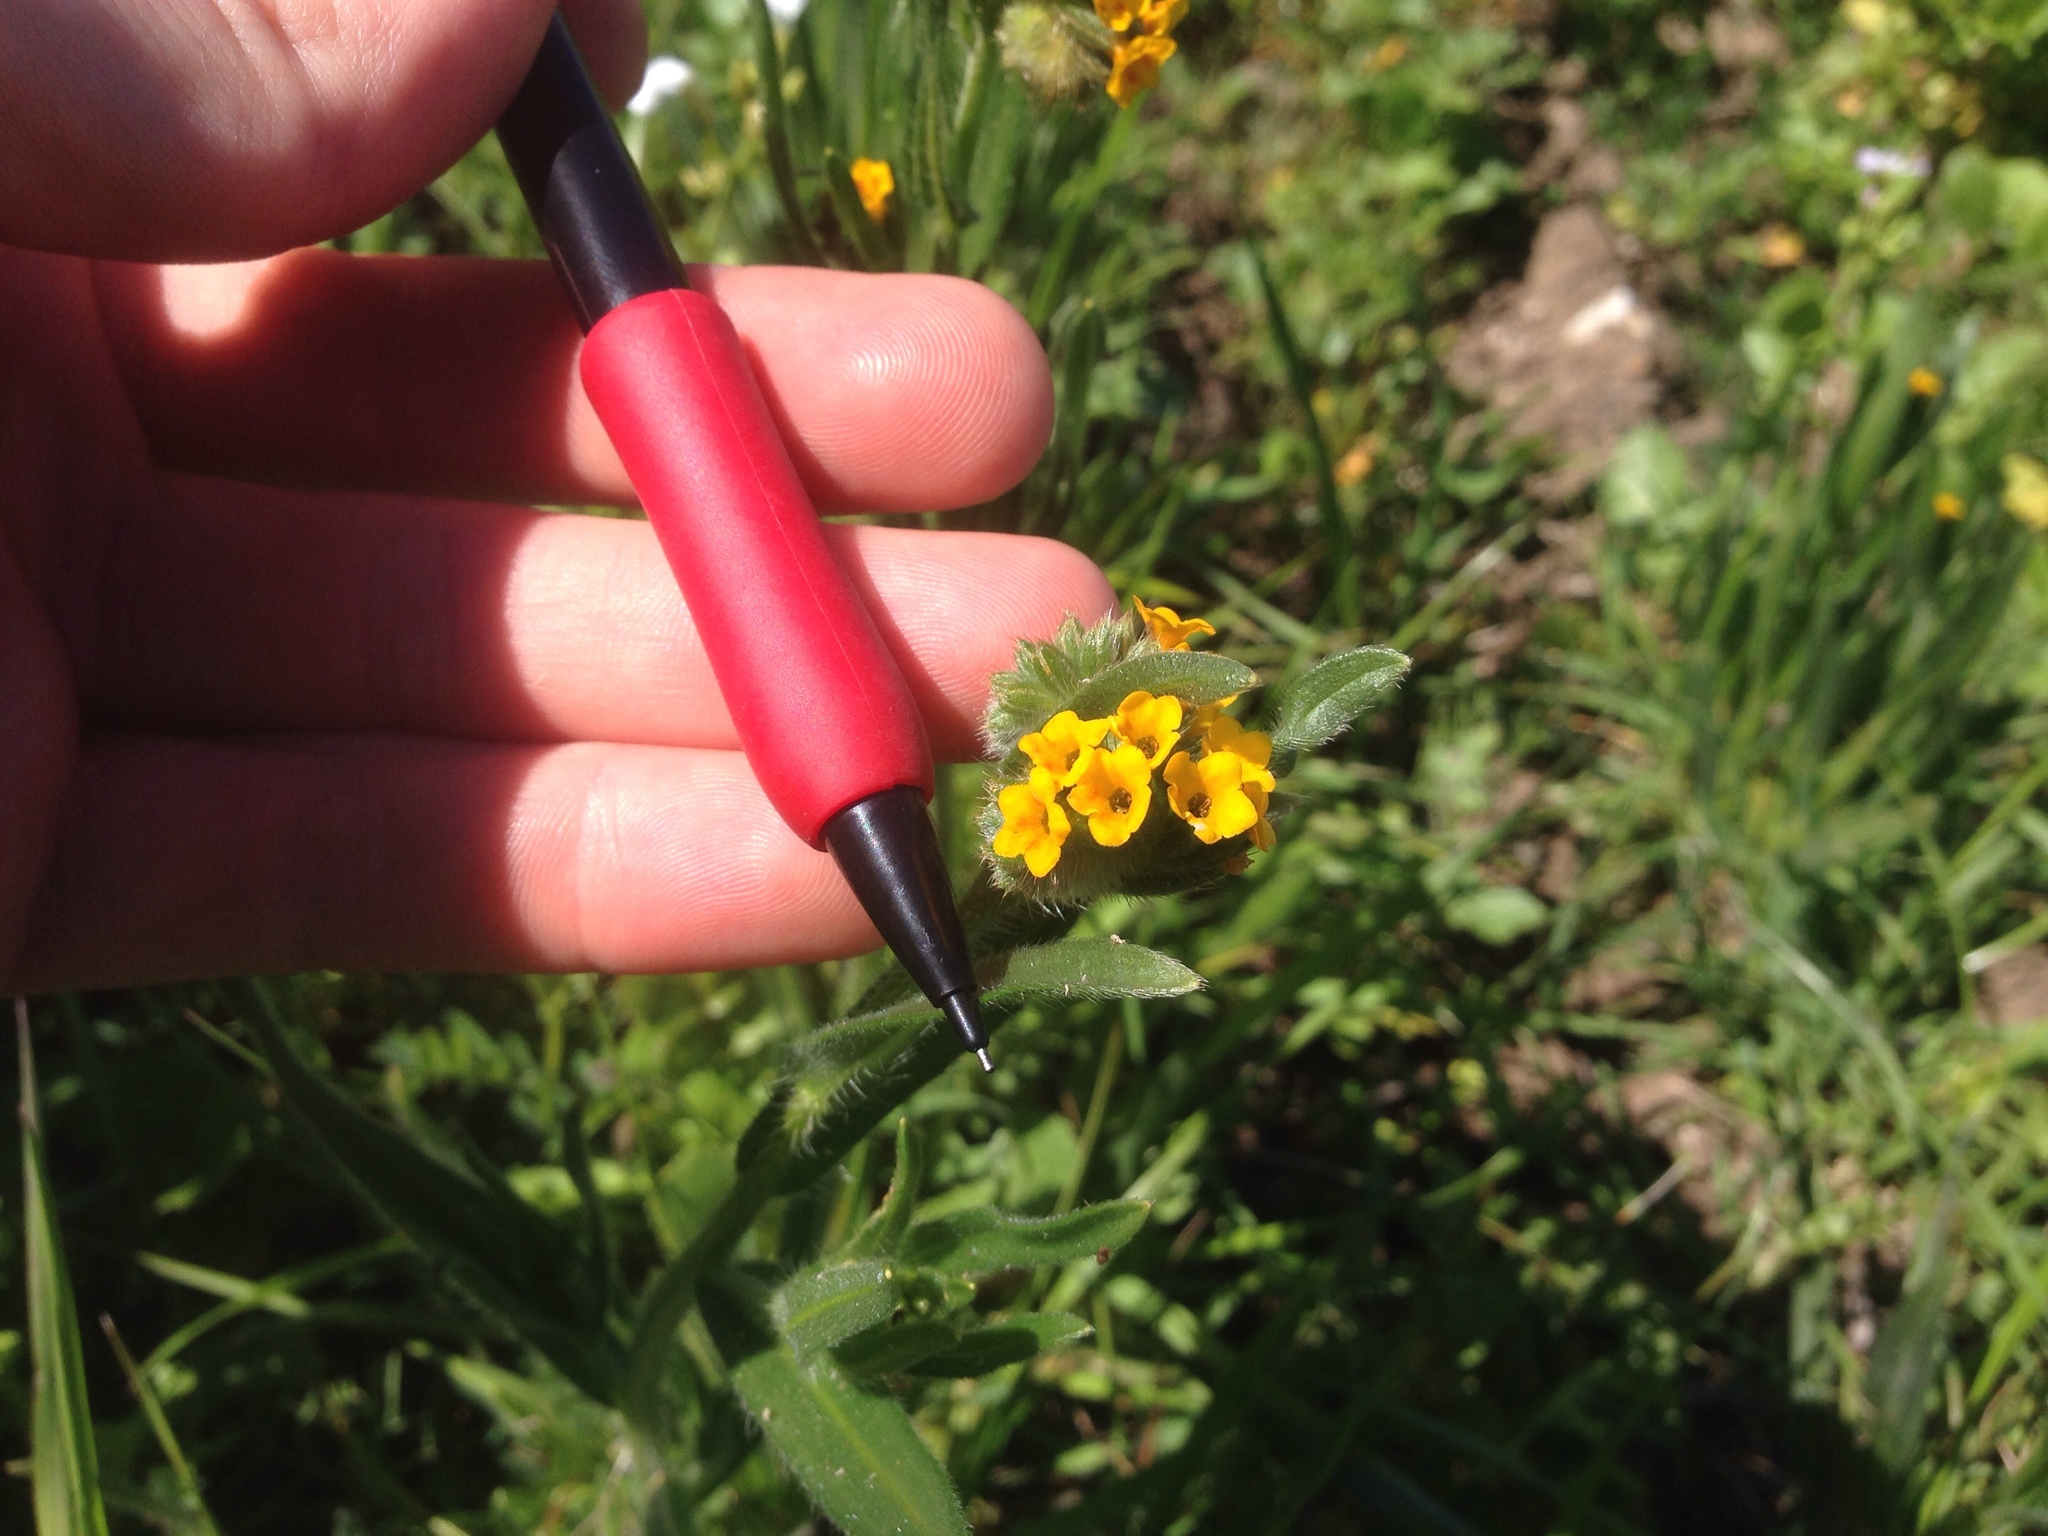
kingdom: Plantae
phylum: Tracheophyta
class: Magnoliopsida
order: Boraginales
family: Boraginaceae
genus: Amsinckia
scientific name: Amsinckia menziesii
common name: Menzies' fiddleneck
